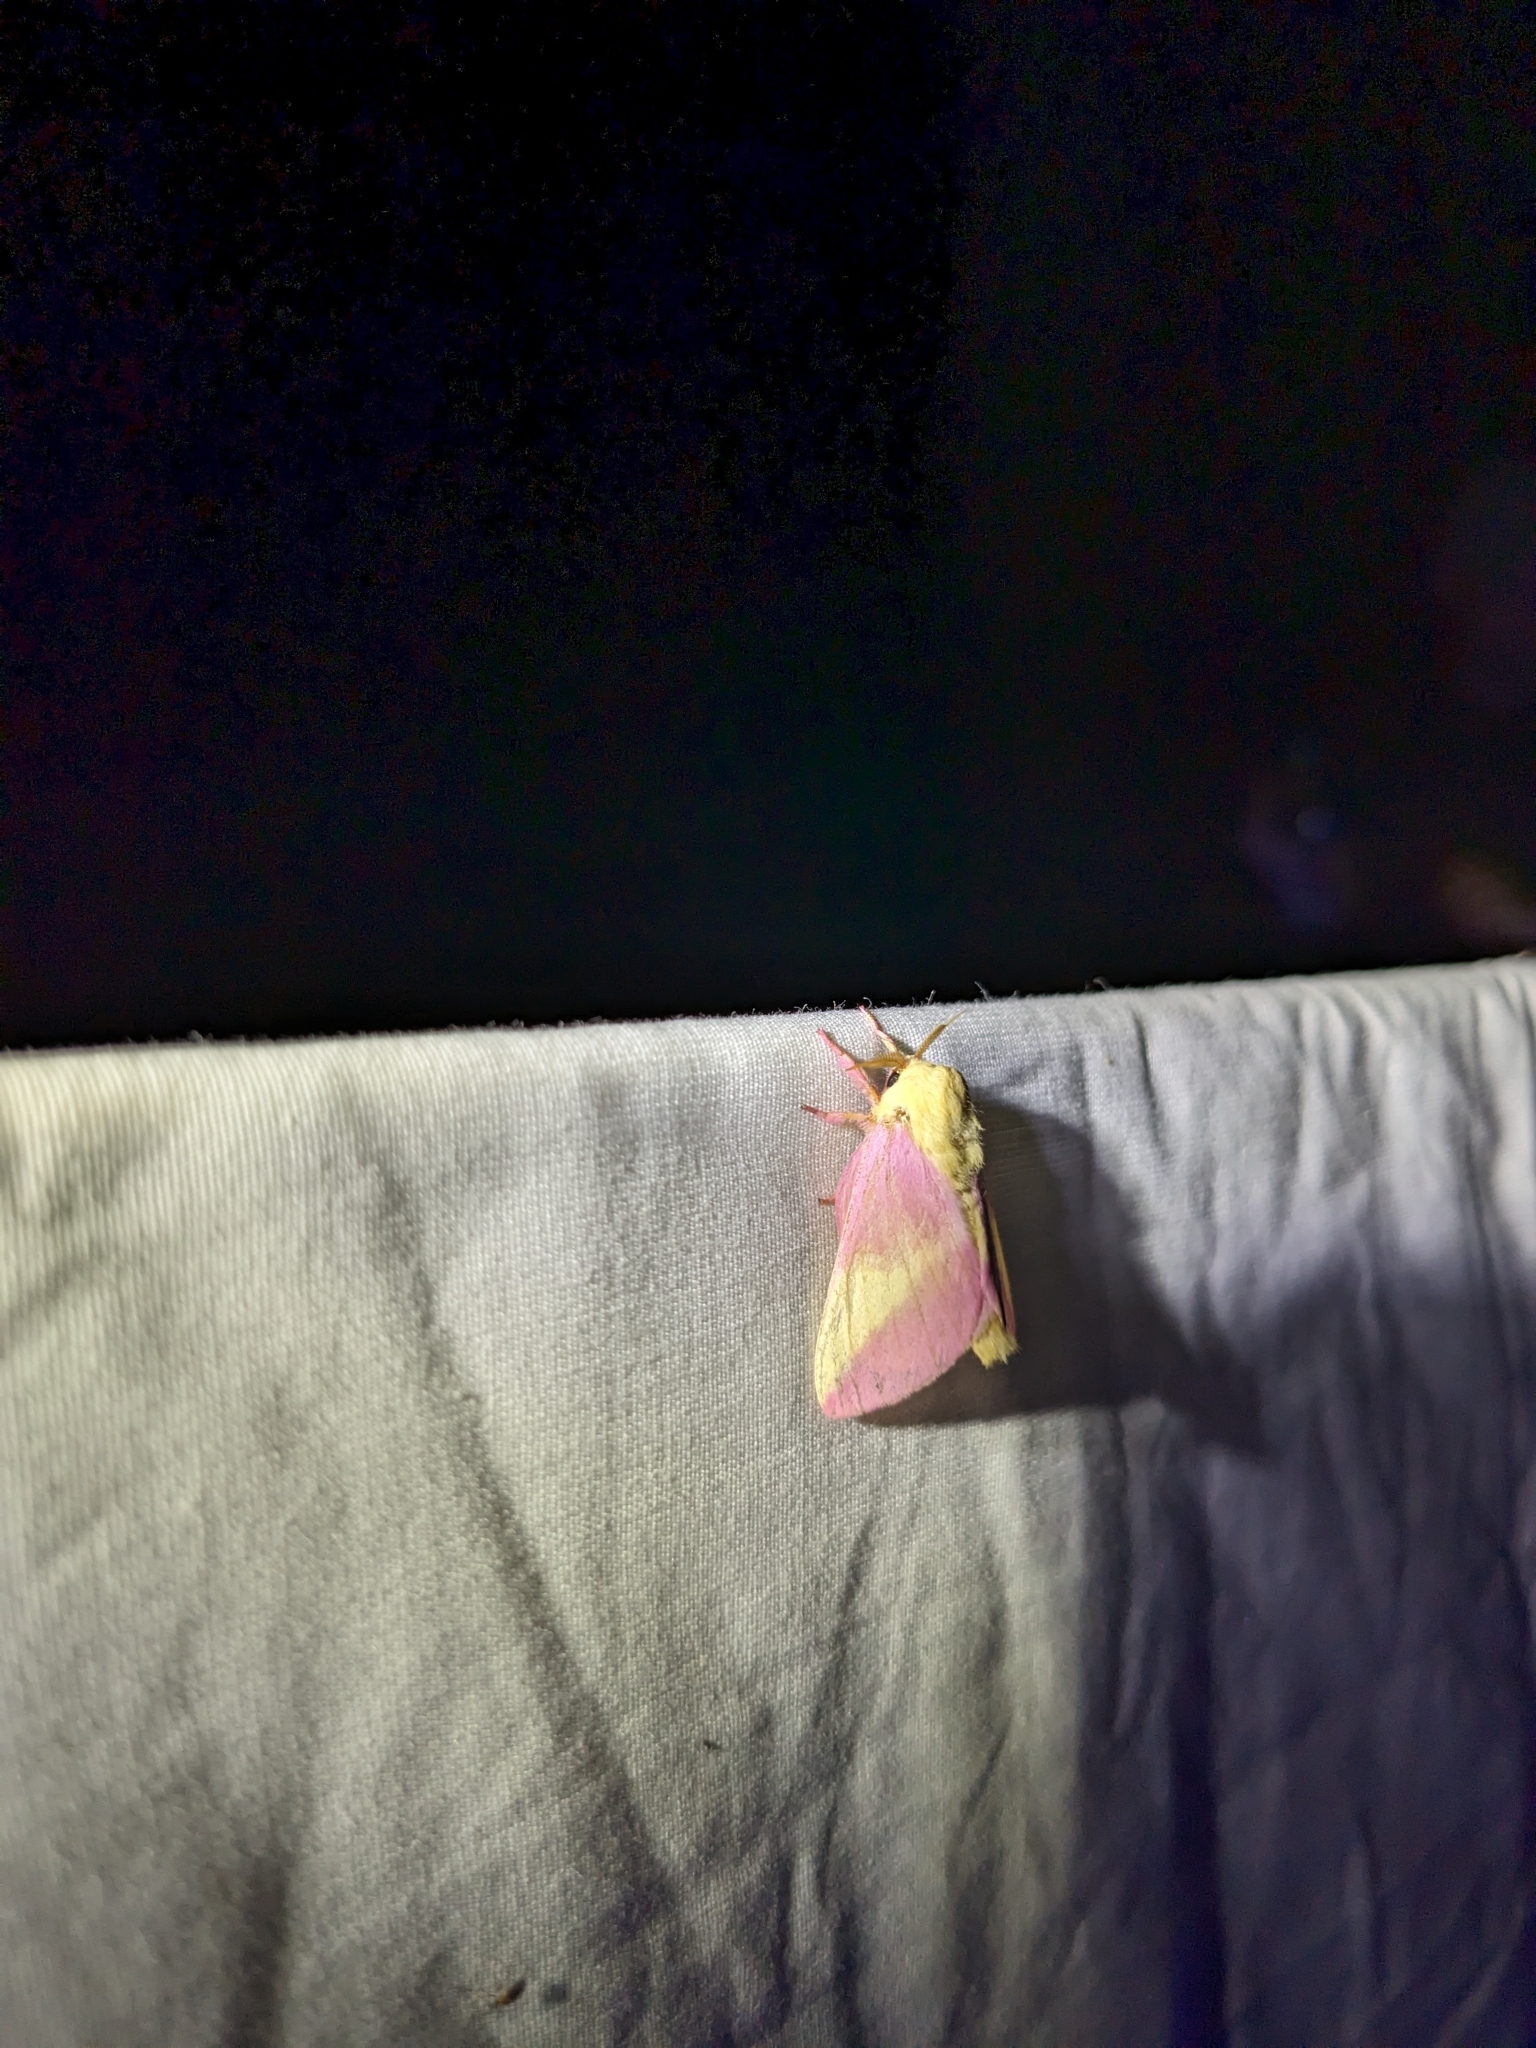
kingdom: Animalia
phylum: Arthropoda
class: Insecta
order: Lepidoptera
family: Saturniidae
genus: Dryocampa
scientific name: Dryocampa rubicunda
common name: Rosy maple moth
